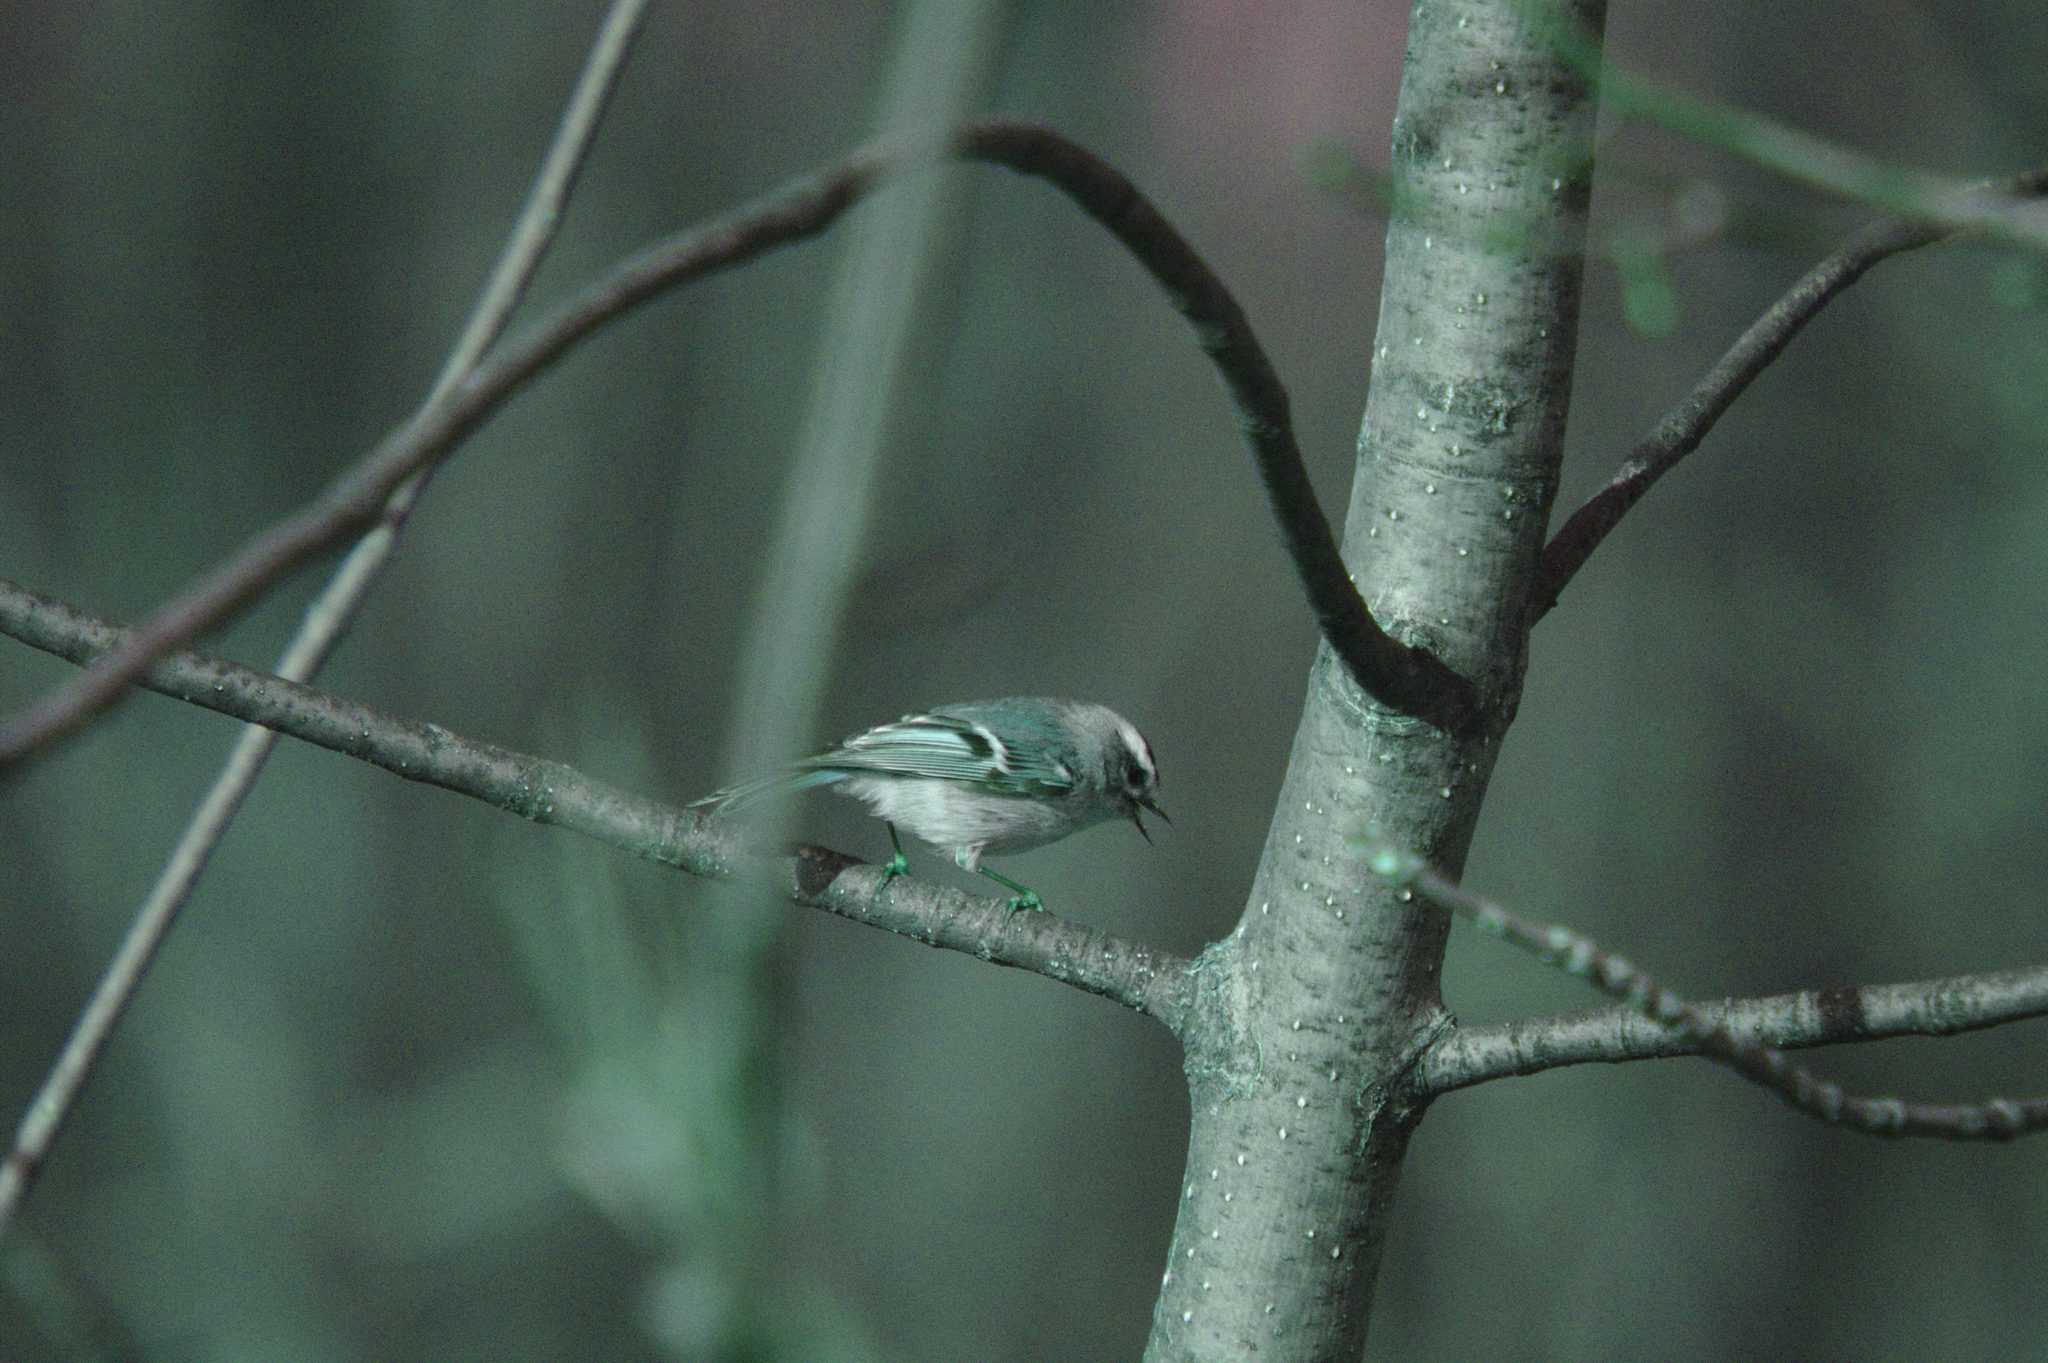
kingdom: Animalia
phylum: Chordata
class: Aves
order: Passeriformes
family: Regulidae
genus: Regulus
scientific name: Regulus satrapa
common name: Golden-crowned kinglet
